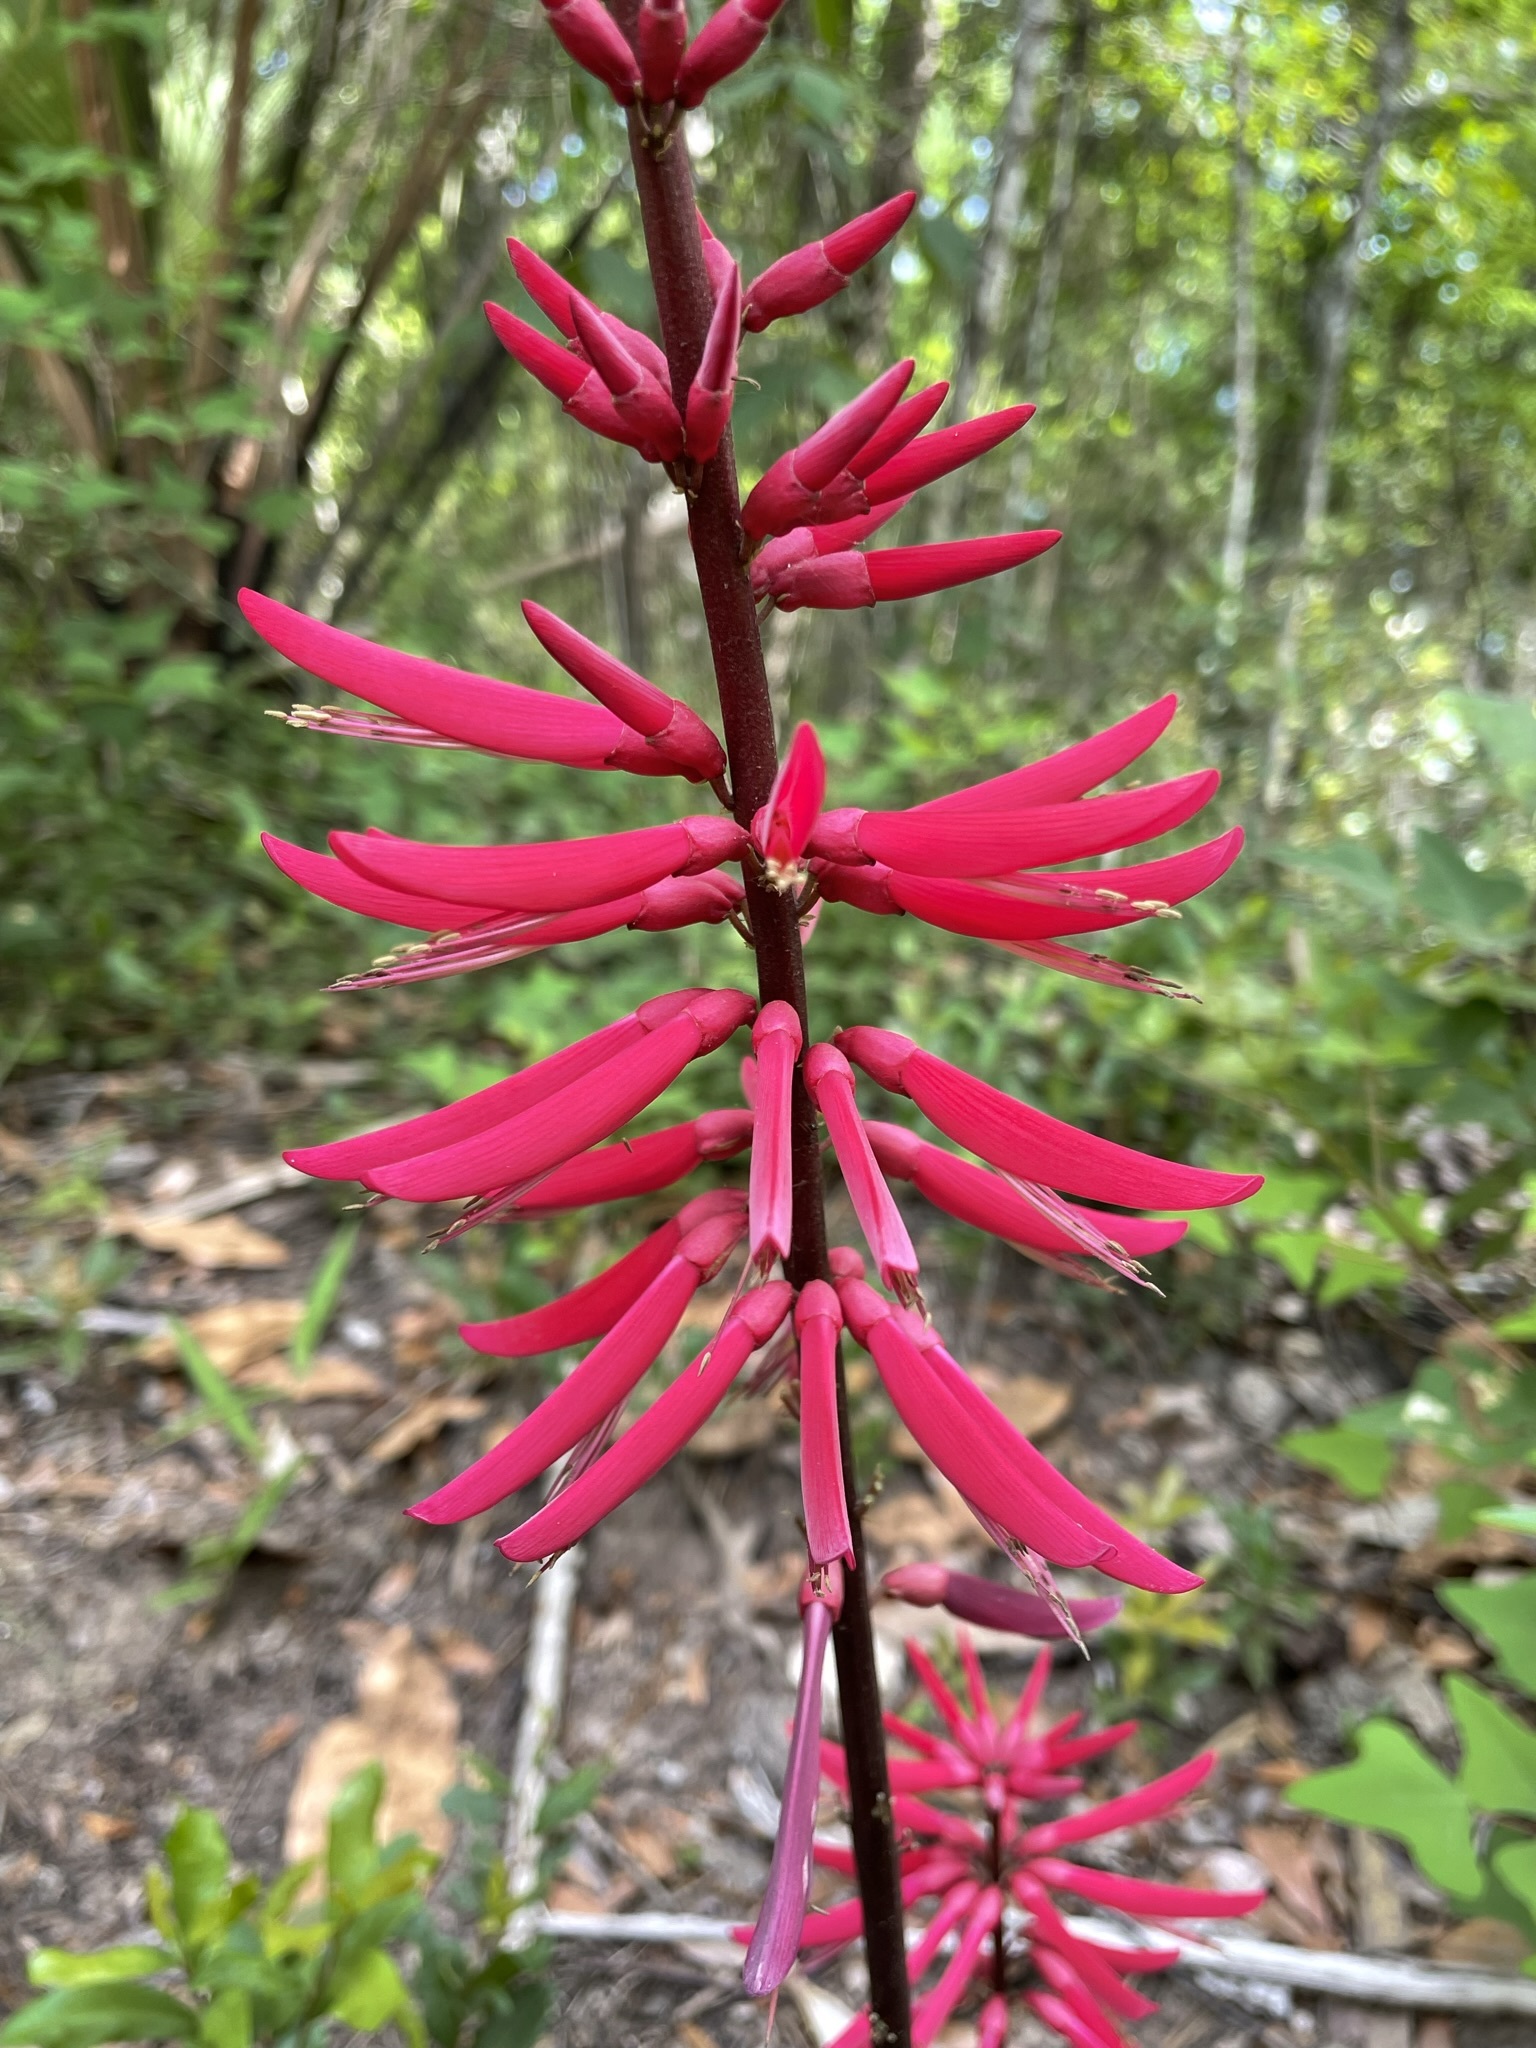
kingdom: Plantae
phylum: Tracheophyta
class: Magnoliopsida
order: Fabales
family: Fabaceae
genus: Erythrina
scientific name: Erythrina herbacea
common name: Coral-bean
